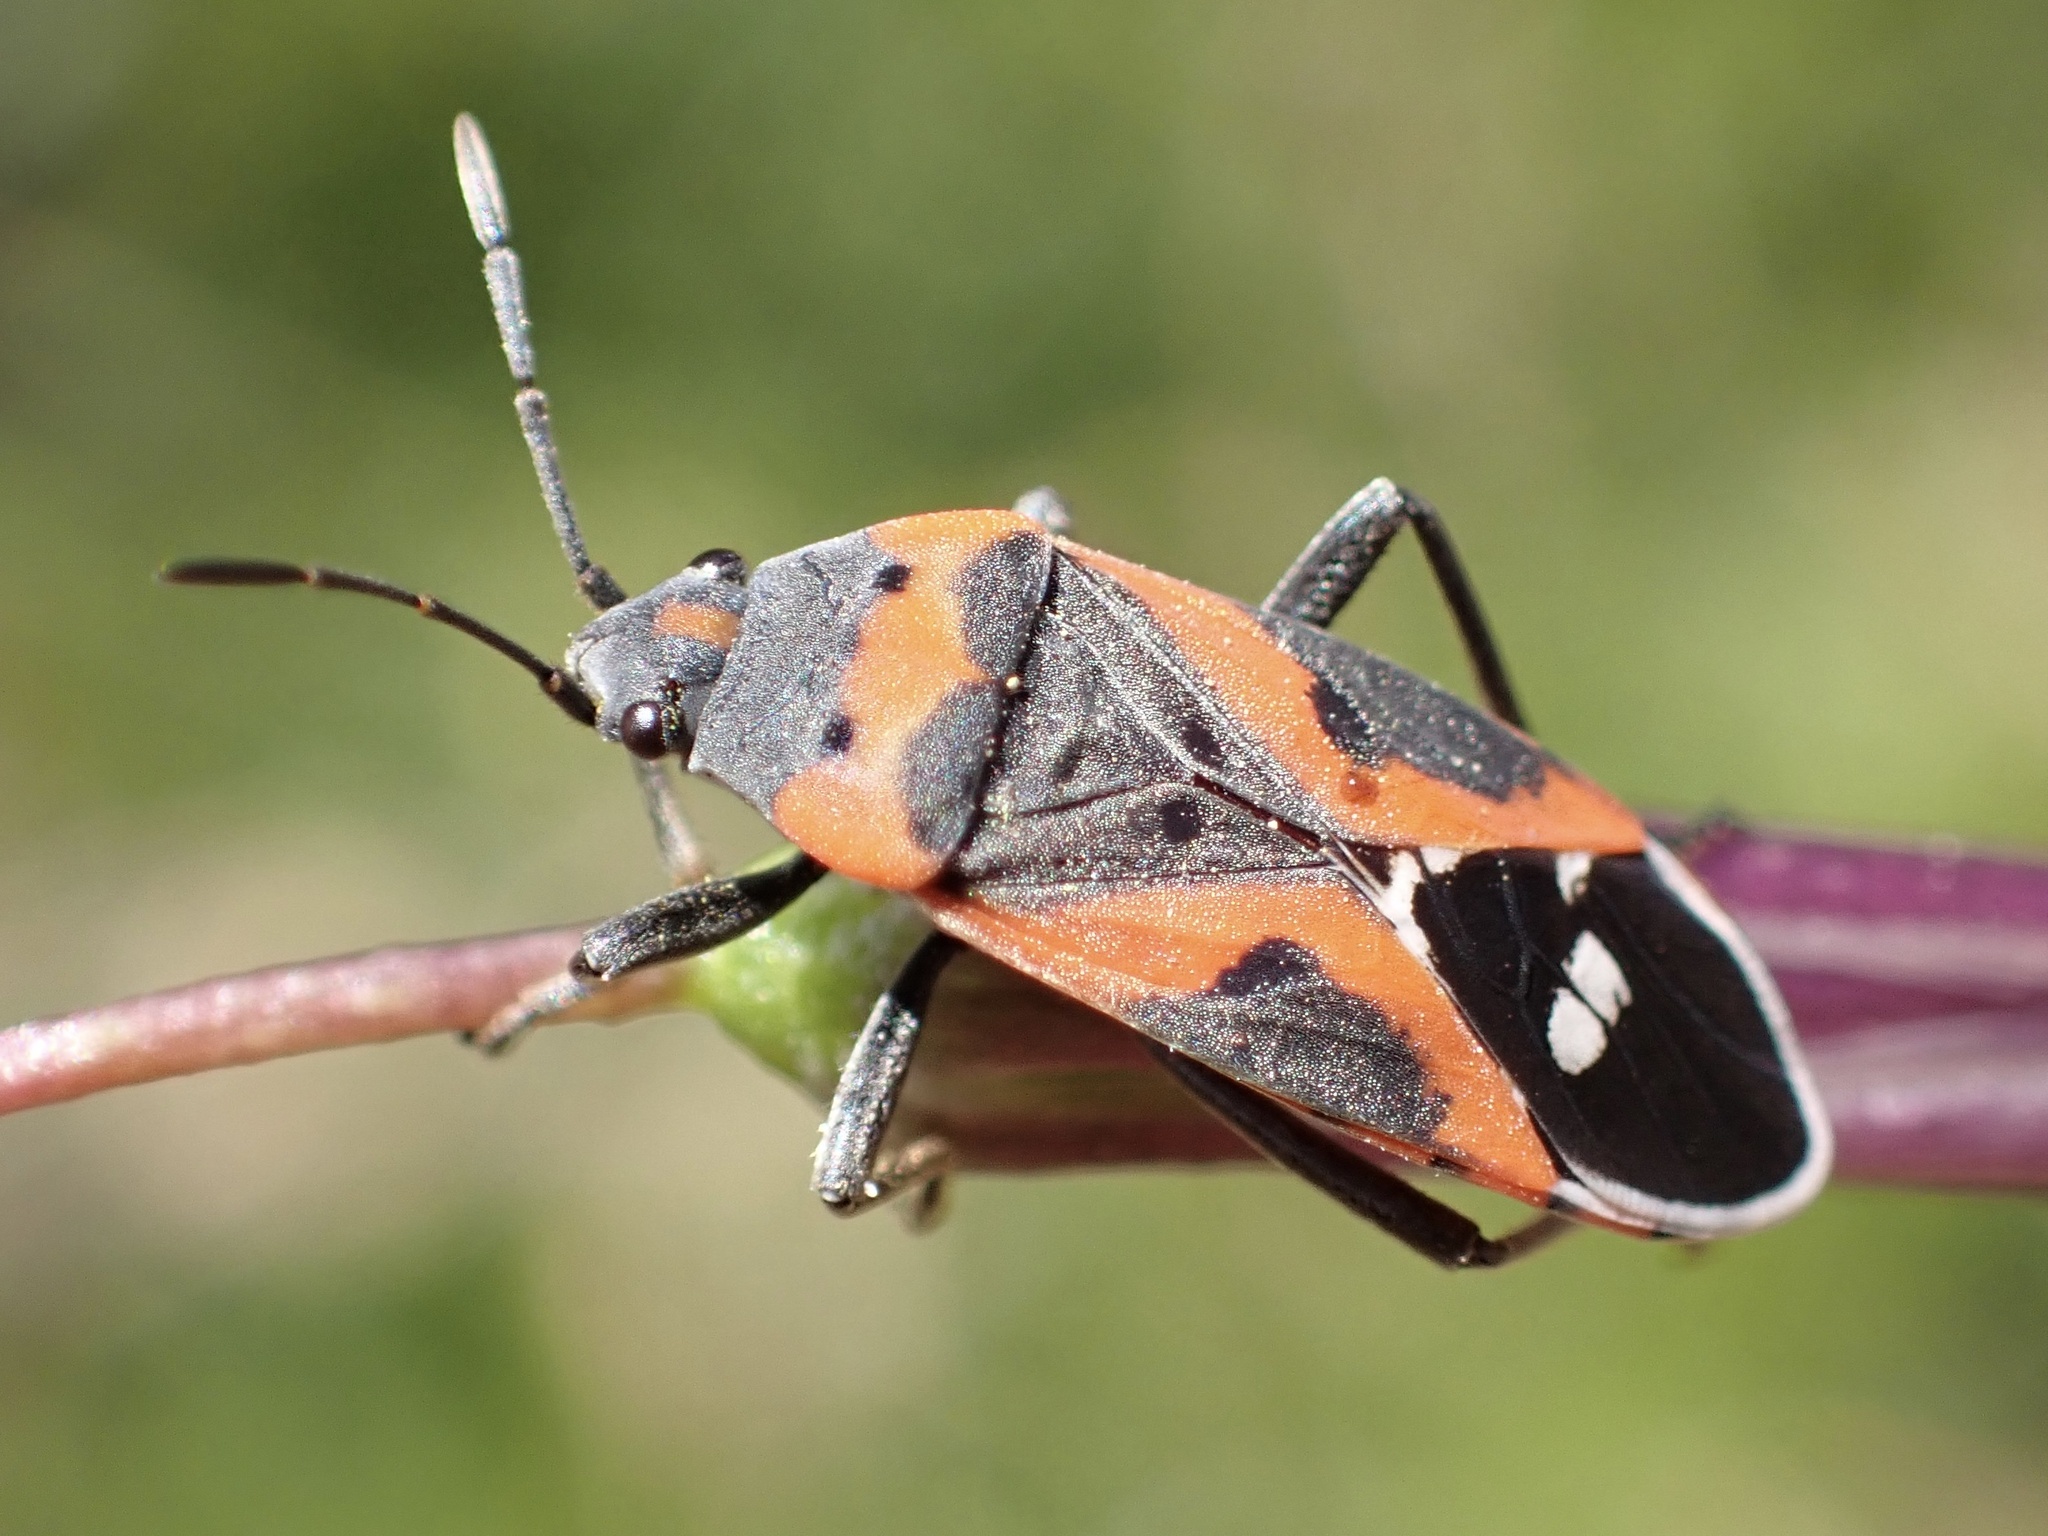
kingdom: Animalia
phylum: Arthropoda
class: Insecta
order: Hemiptera
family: Lygaeidae
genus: Lygaeus
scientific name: Lygaeus kalmii
